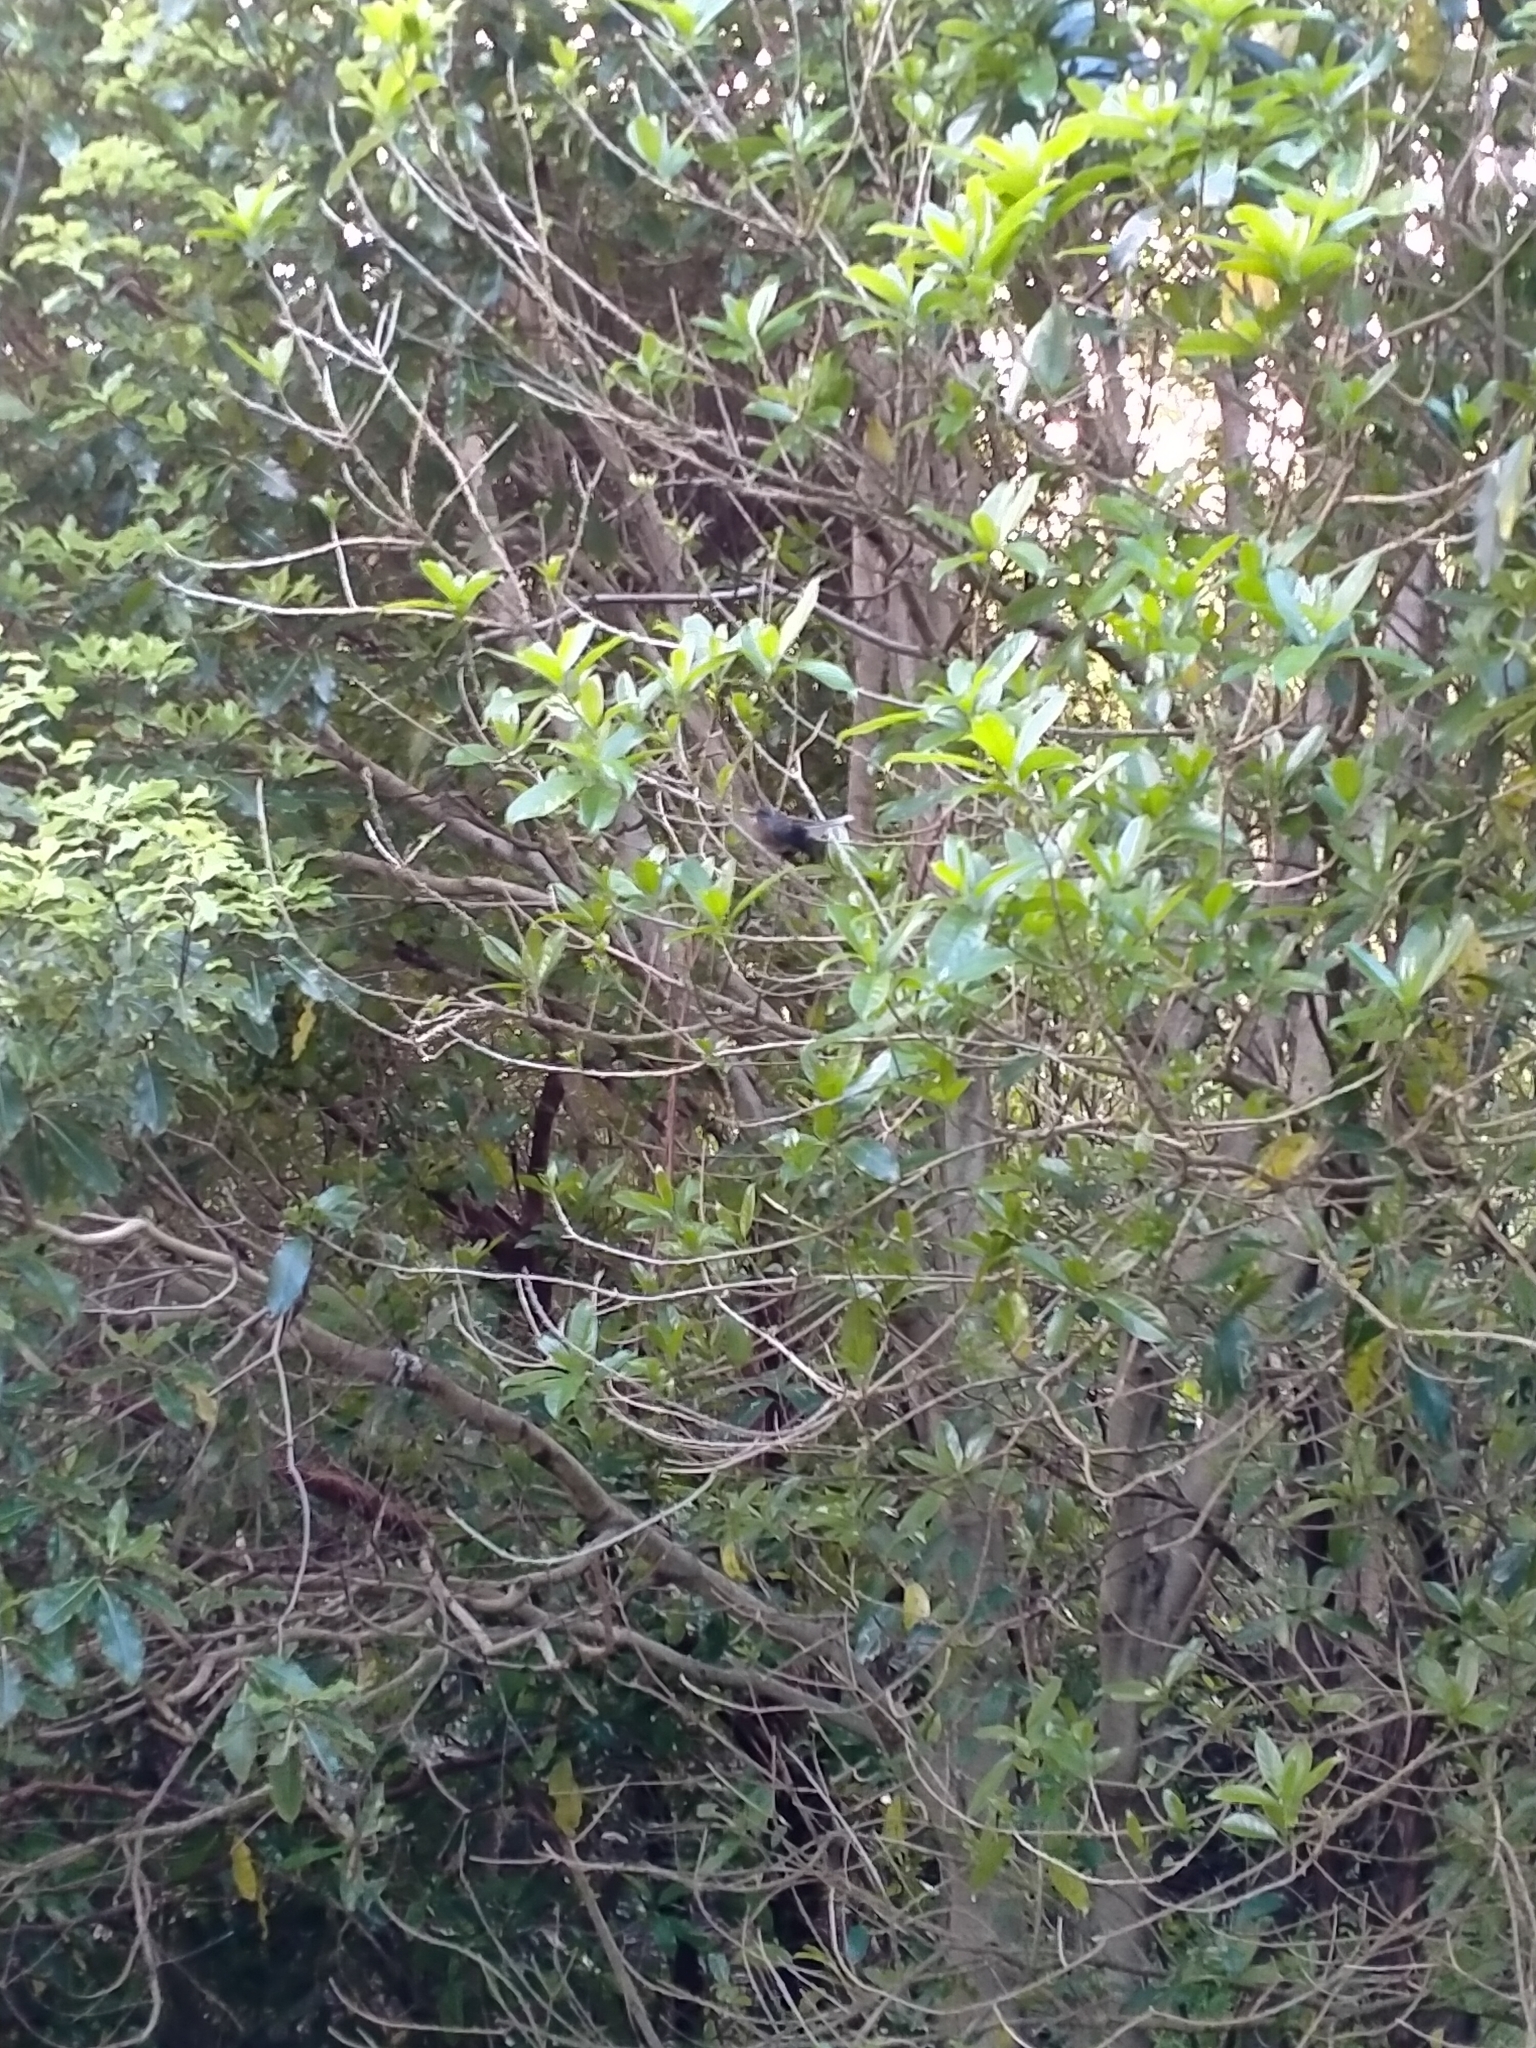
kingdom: Animalia
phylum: Chordata
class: Aves
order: Passeriformes
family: Rhipiduridae
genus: Rhipidura
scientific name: Rhipidura fuliginosa
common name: New zealand fantail
